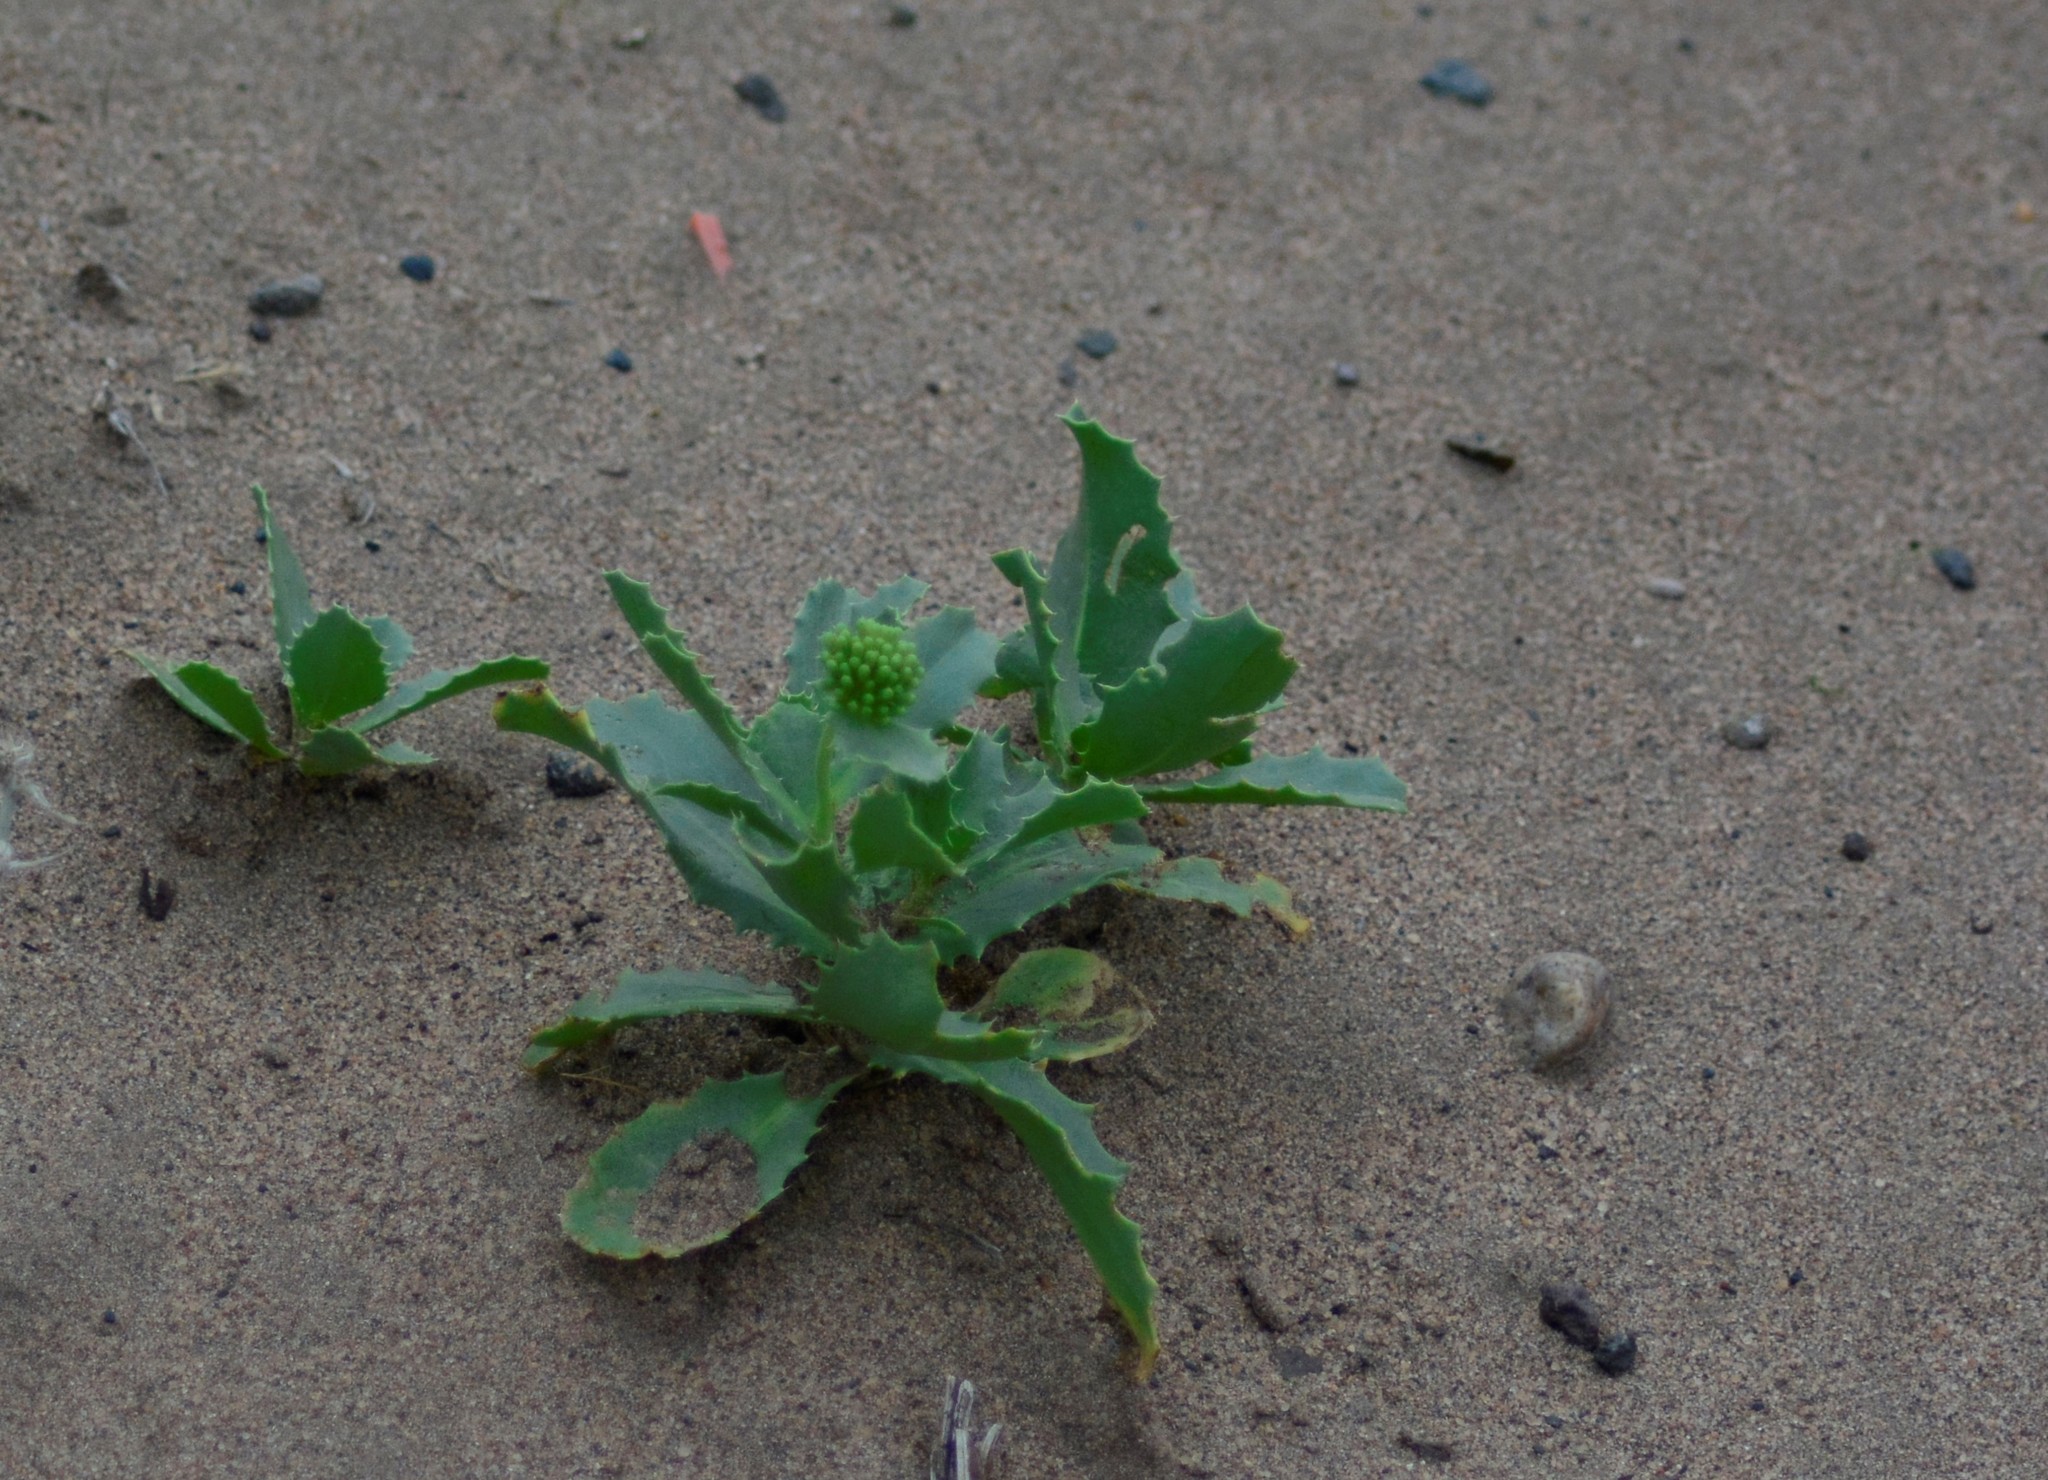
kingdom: Plantae
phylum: Tracheophyta
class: Magnoliopsida
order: Asterales
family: Calyceraceae
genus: Calycera
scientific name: Calycera crassifolia
